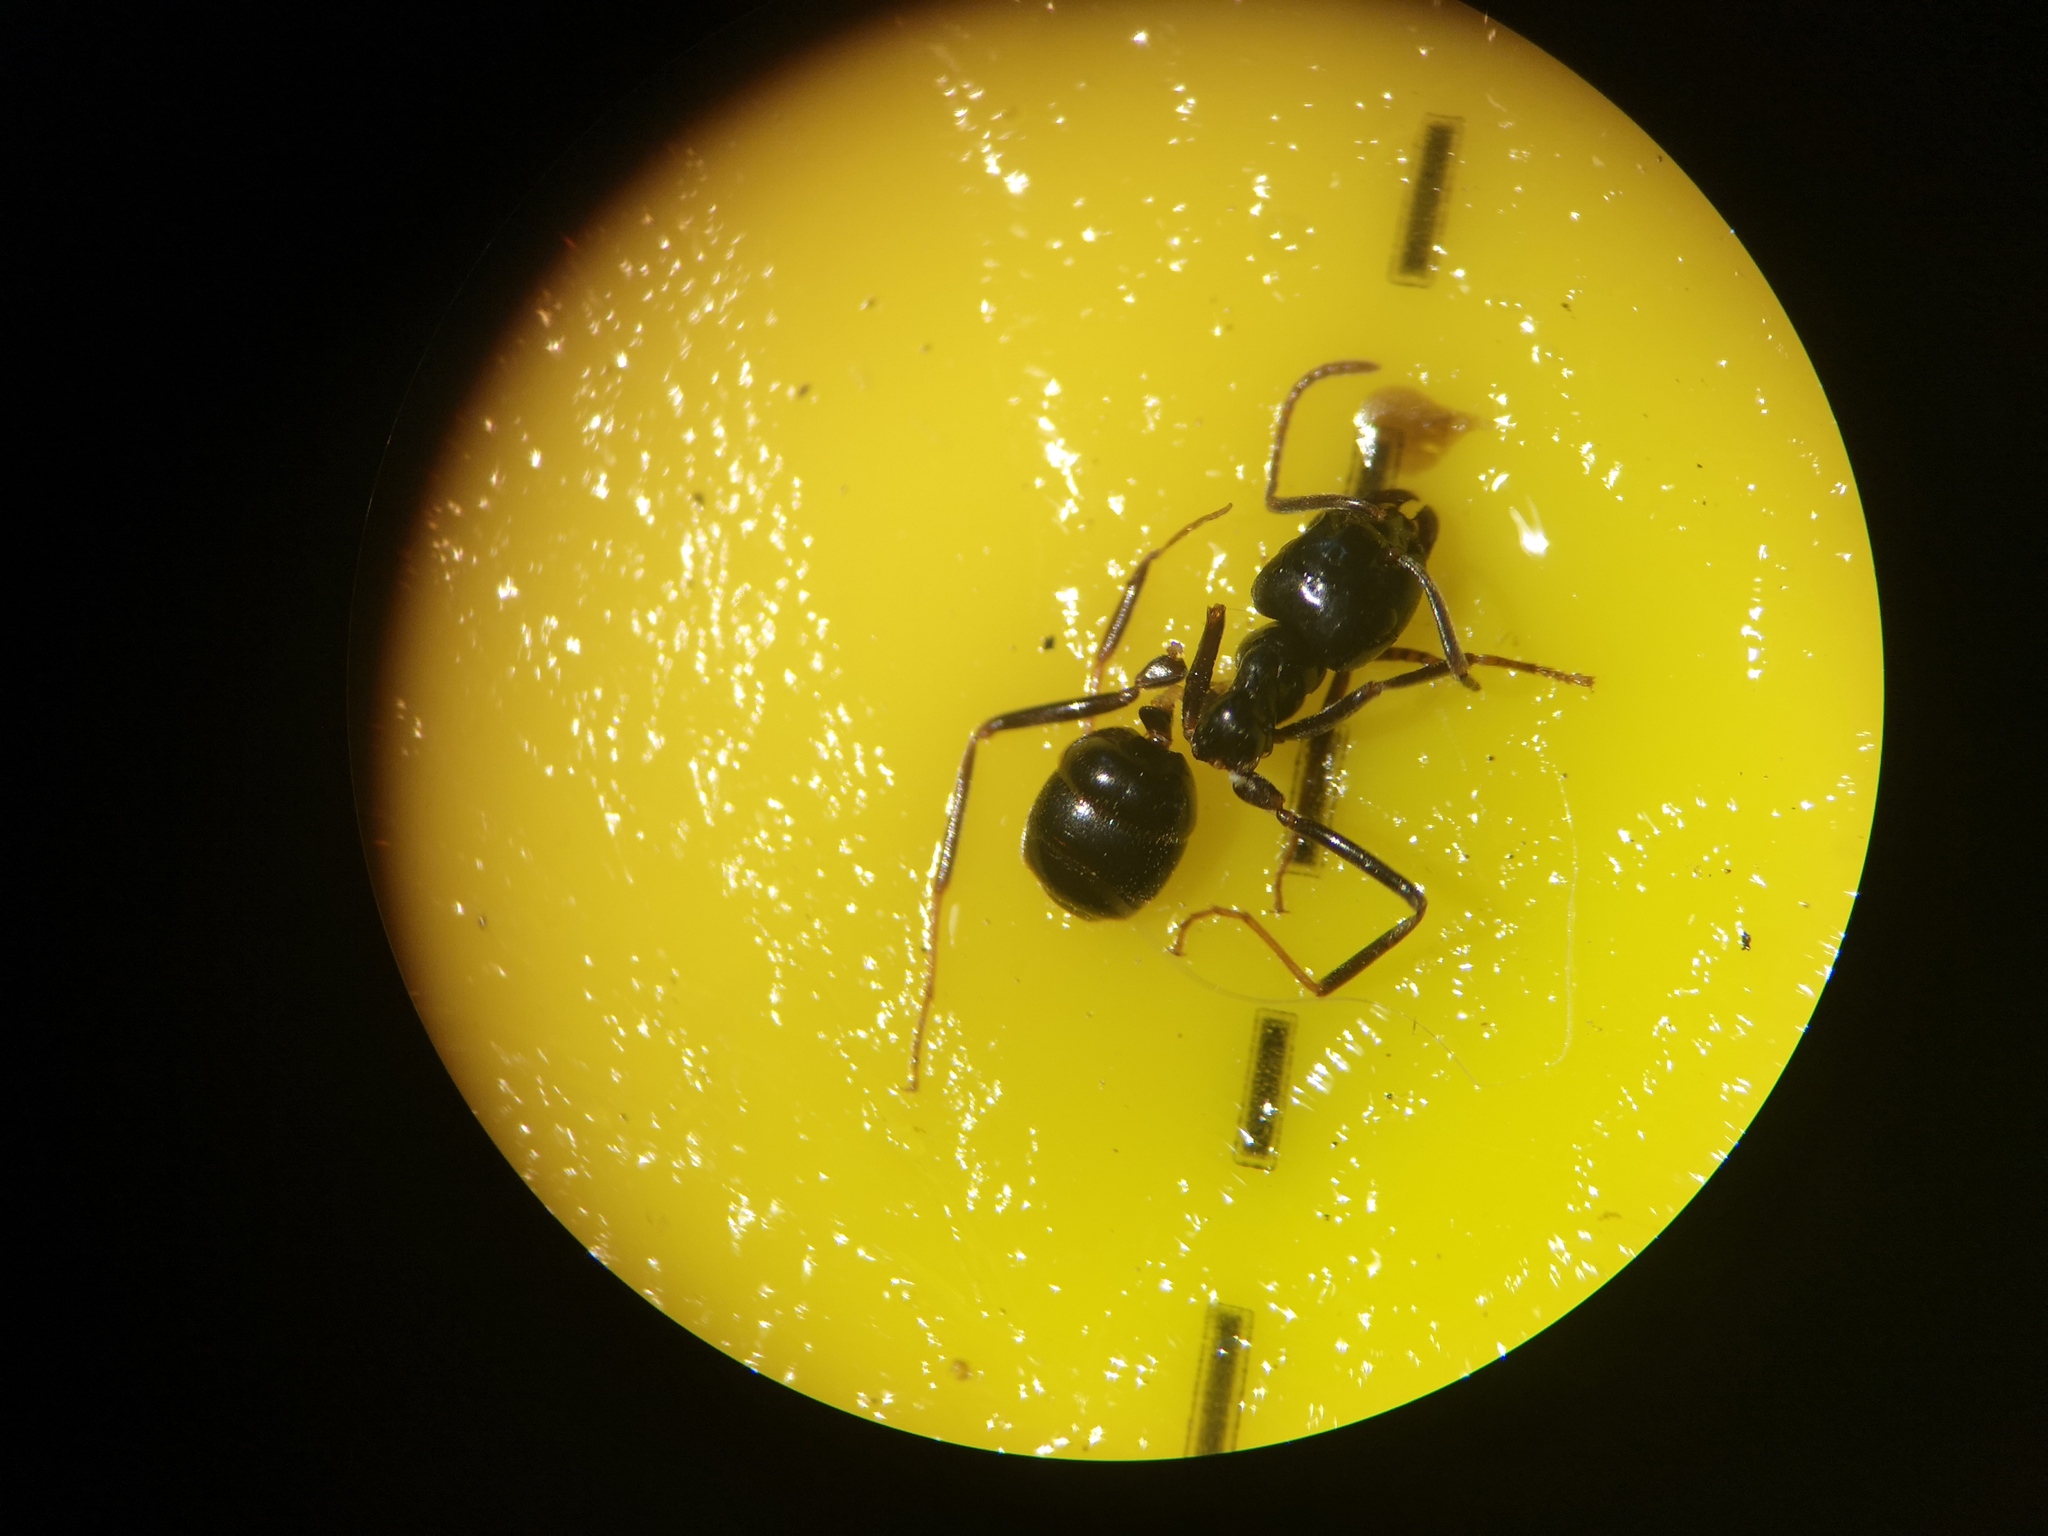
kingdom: Animalia
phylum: Arthropoda
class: Insecta
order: Hymenoptera
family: Formicidae
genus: Lasius
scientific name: Lasius fuliginosus
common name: Jet ant
